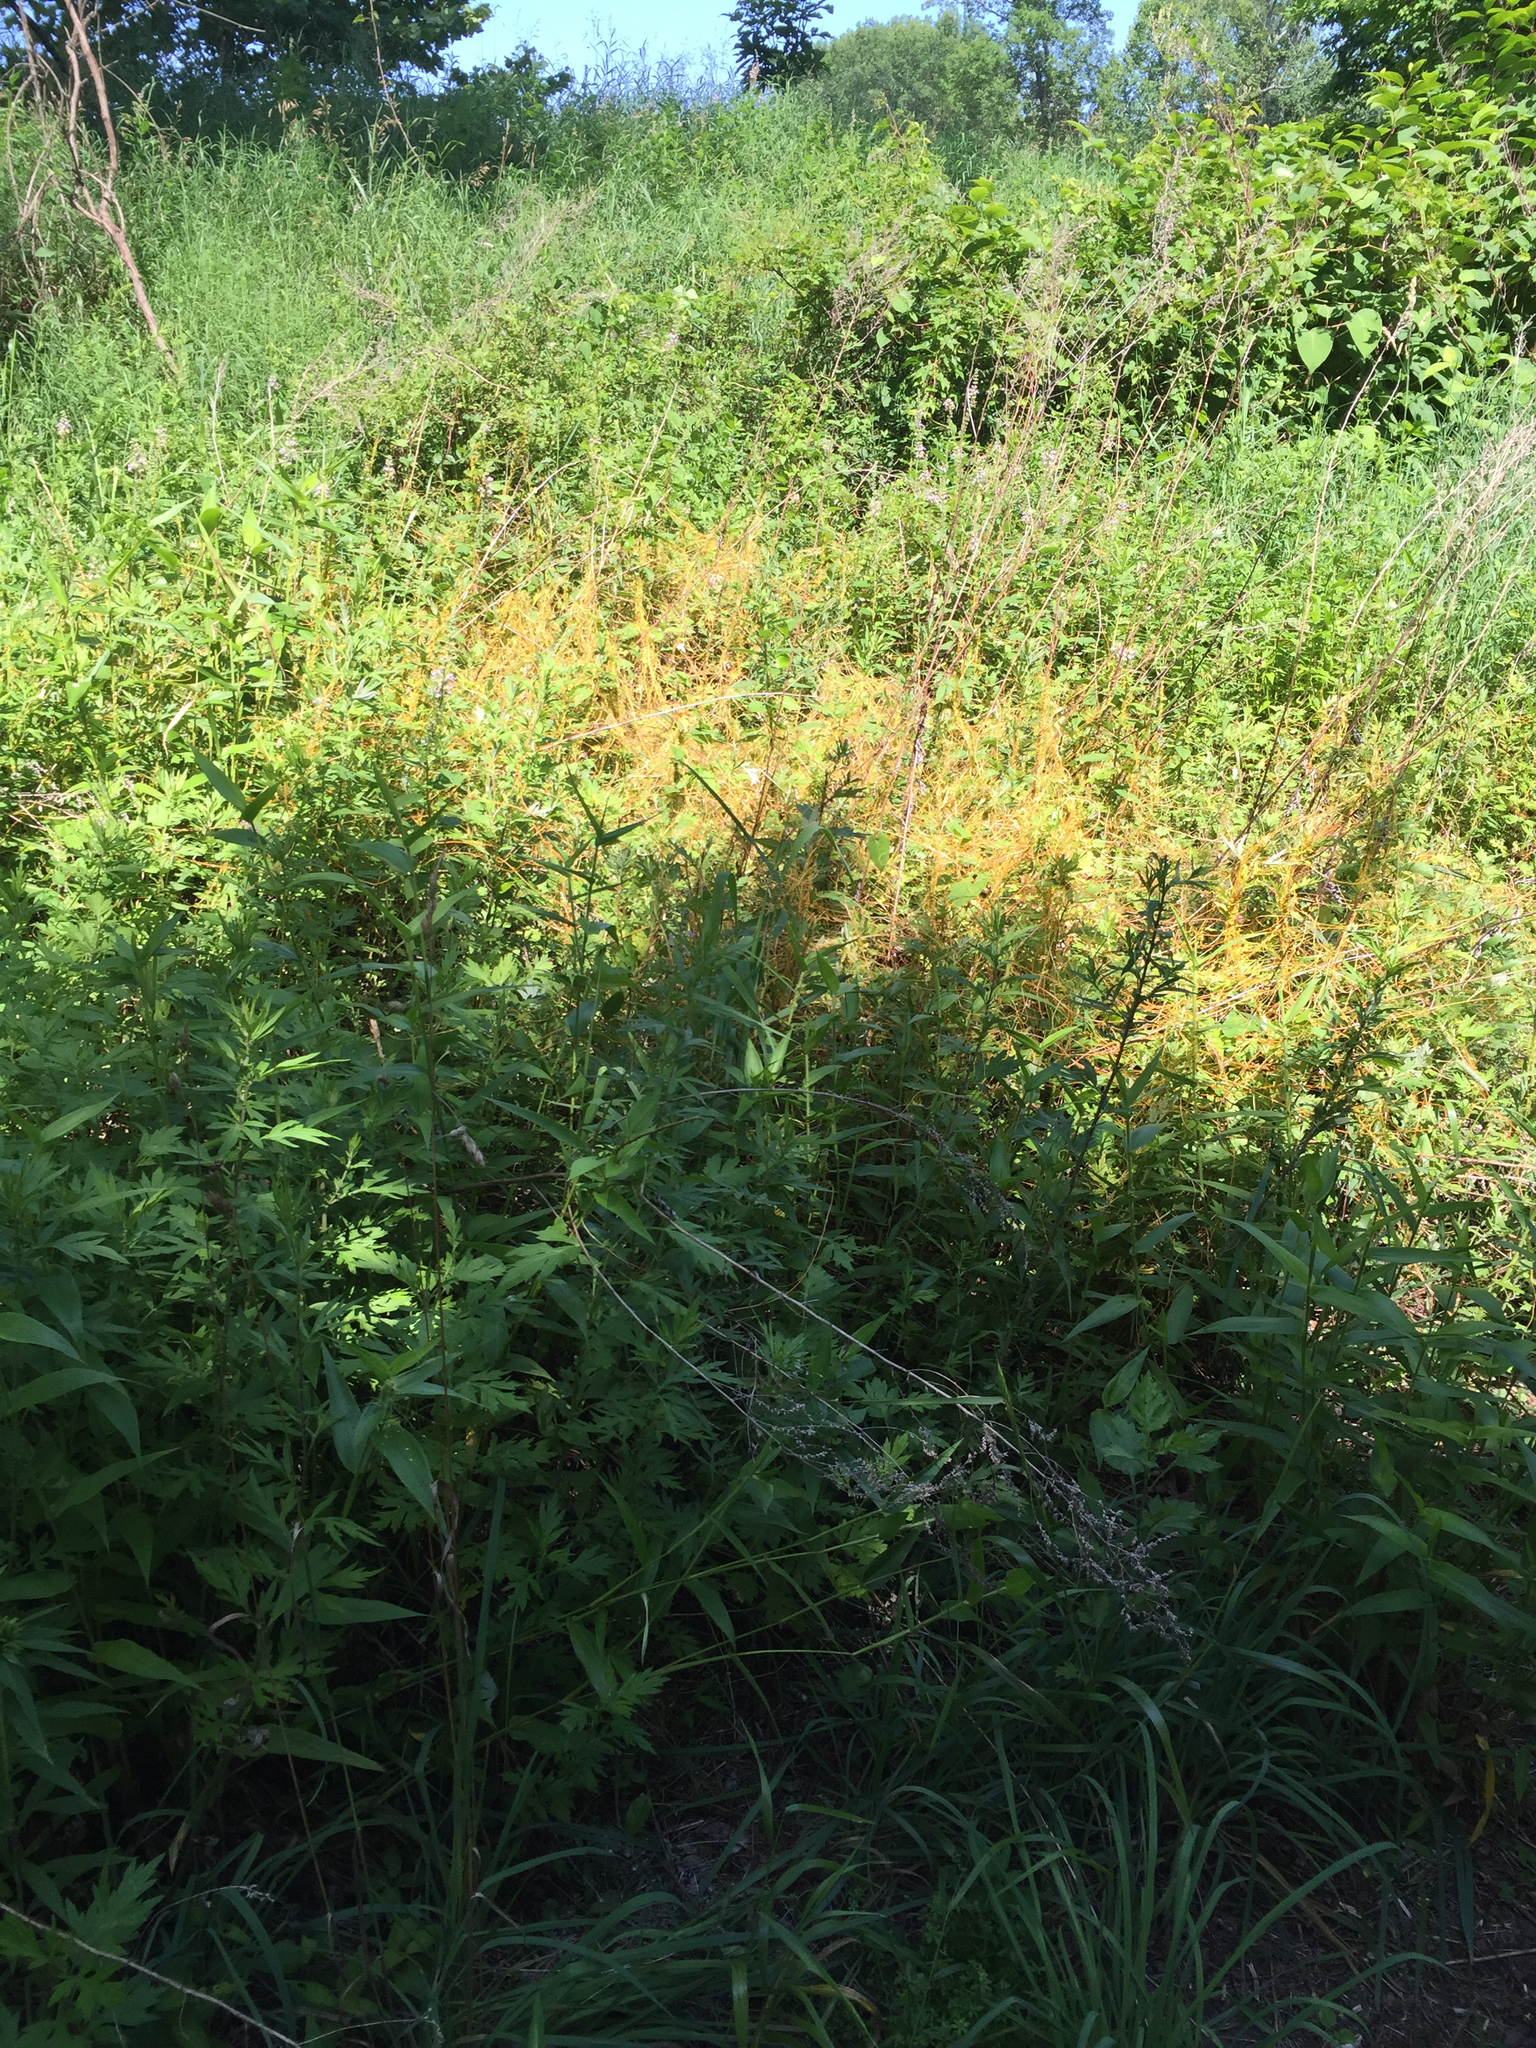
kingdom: Plantae
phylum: Tracheophyta
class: Magnoliopsida
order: Solanales
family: Convolvulaceae
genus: Cuscuta
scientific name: Cuscuta gronovii
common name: Common dodder
